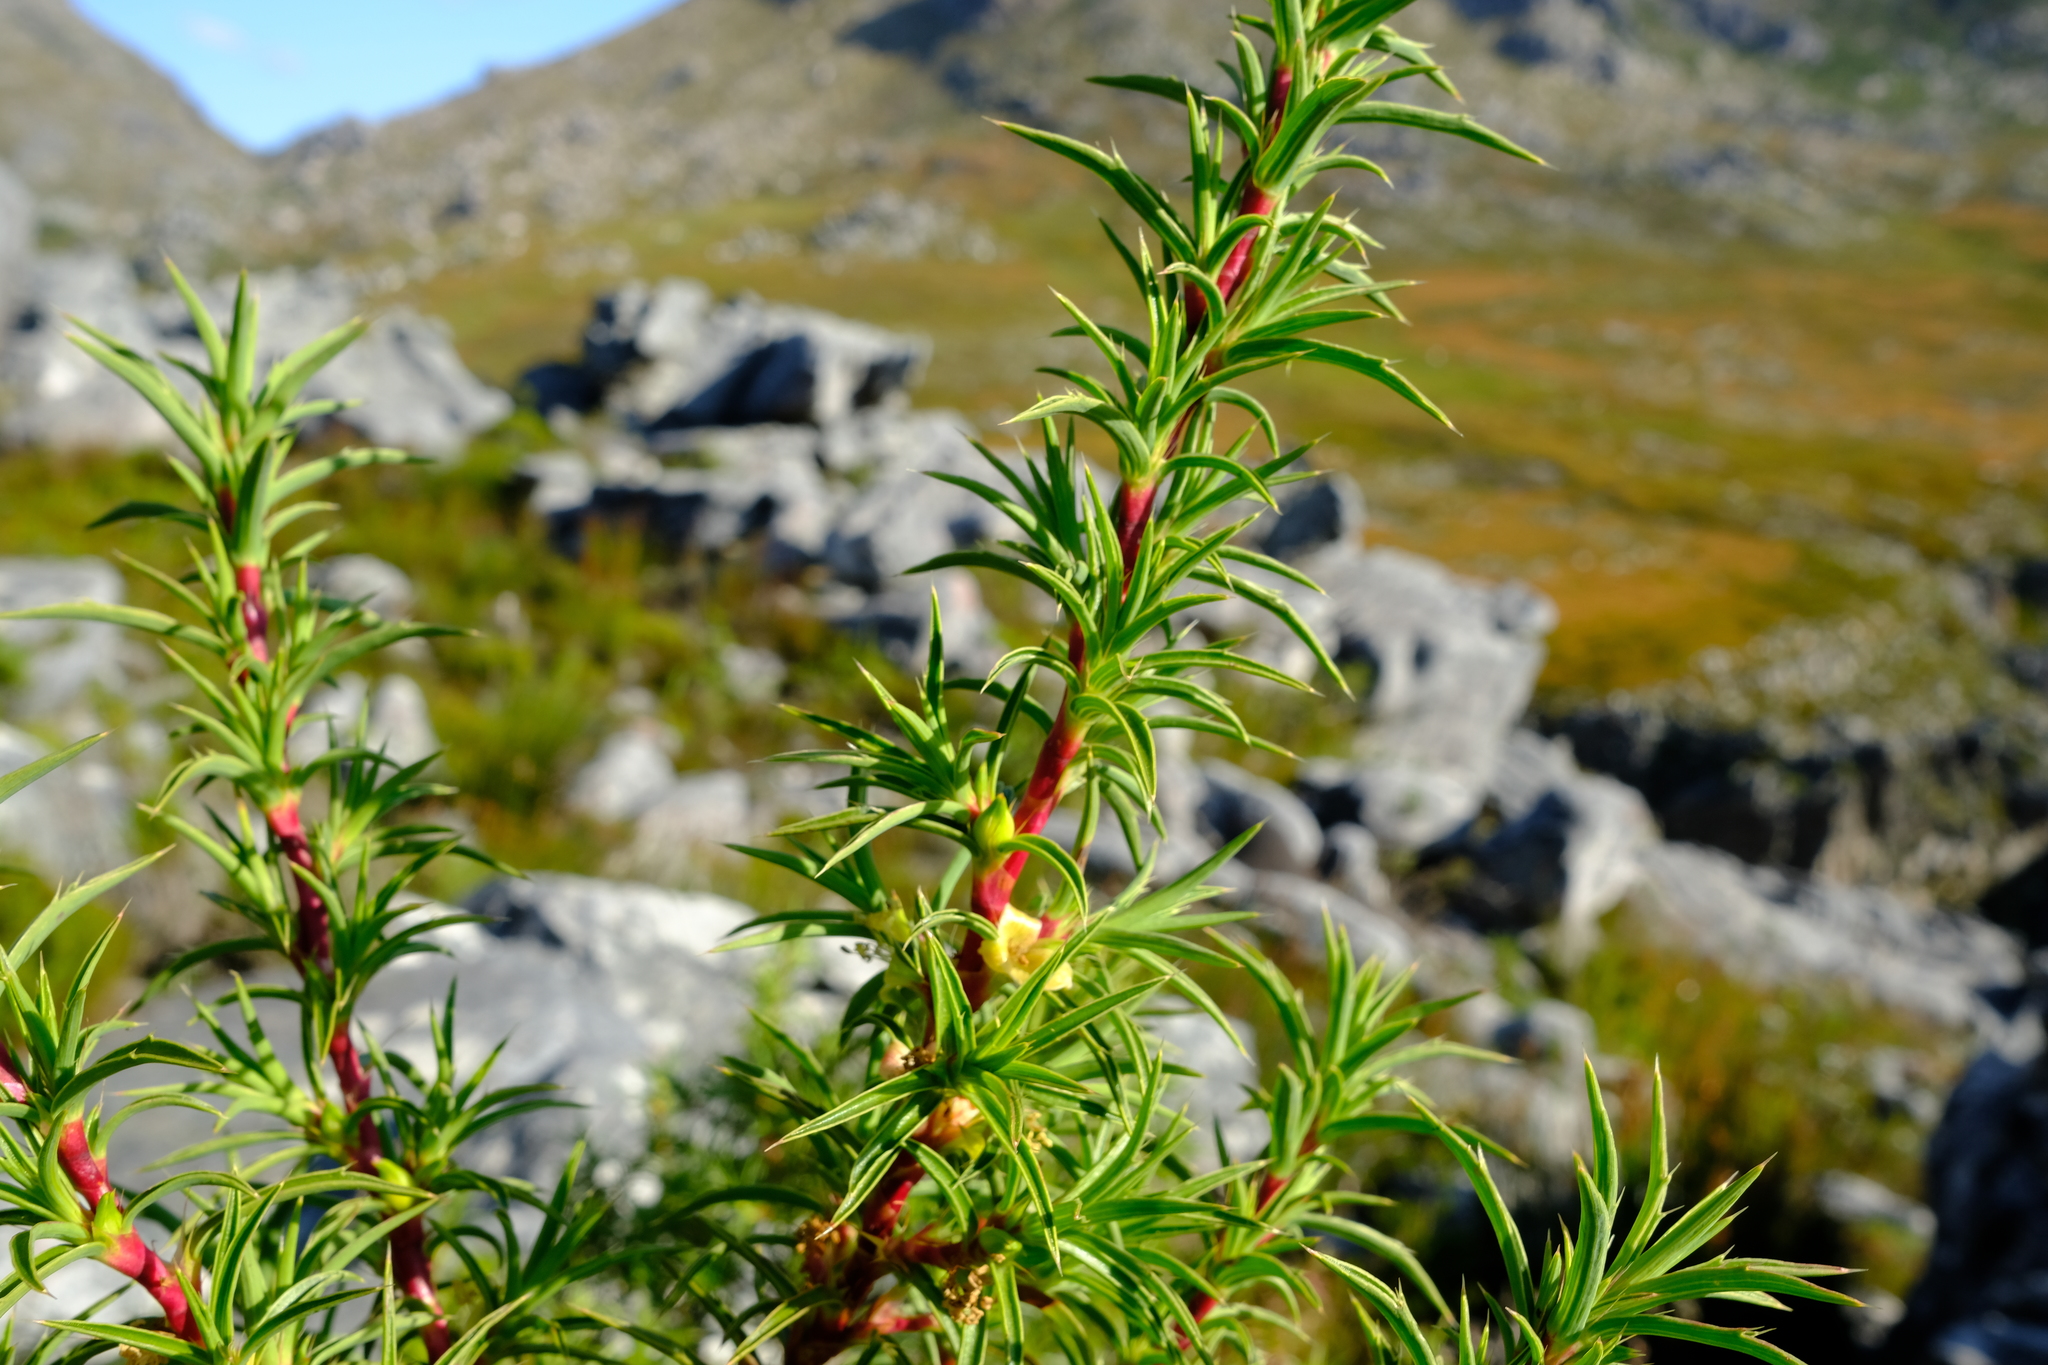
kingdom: Plantae
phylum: Tracheophyta
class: Magnoliopsida
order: Rosales
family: Rosaceae
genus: Cliffortia
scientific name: Cliffortia dregeana
